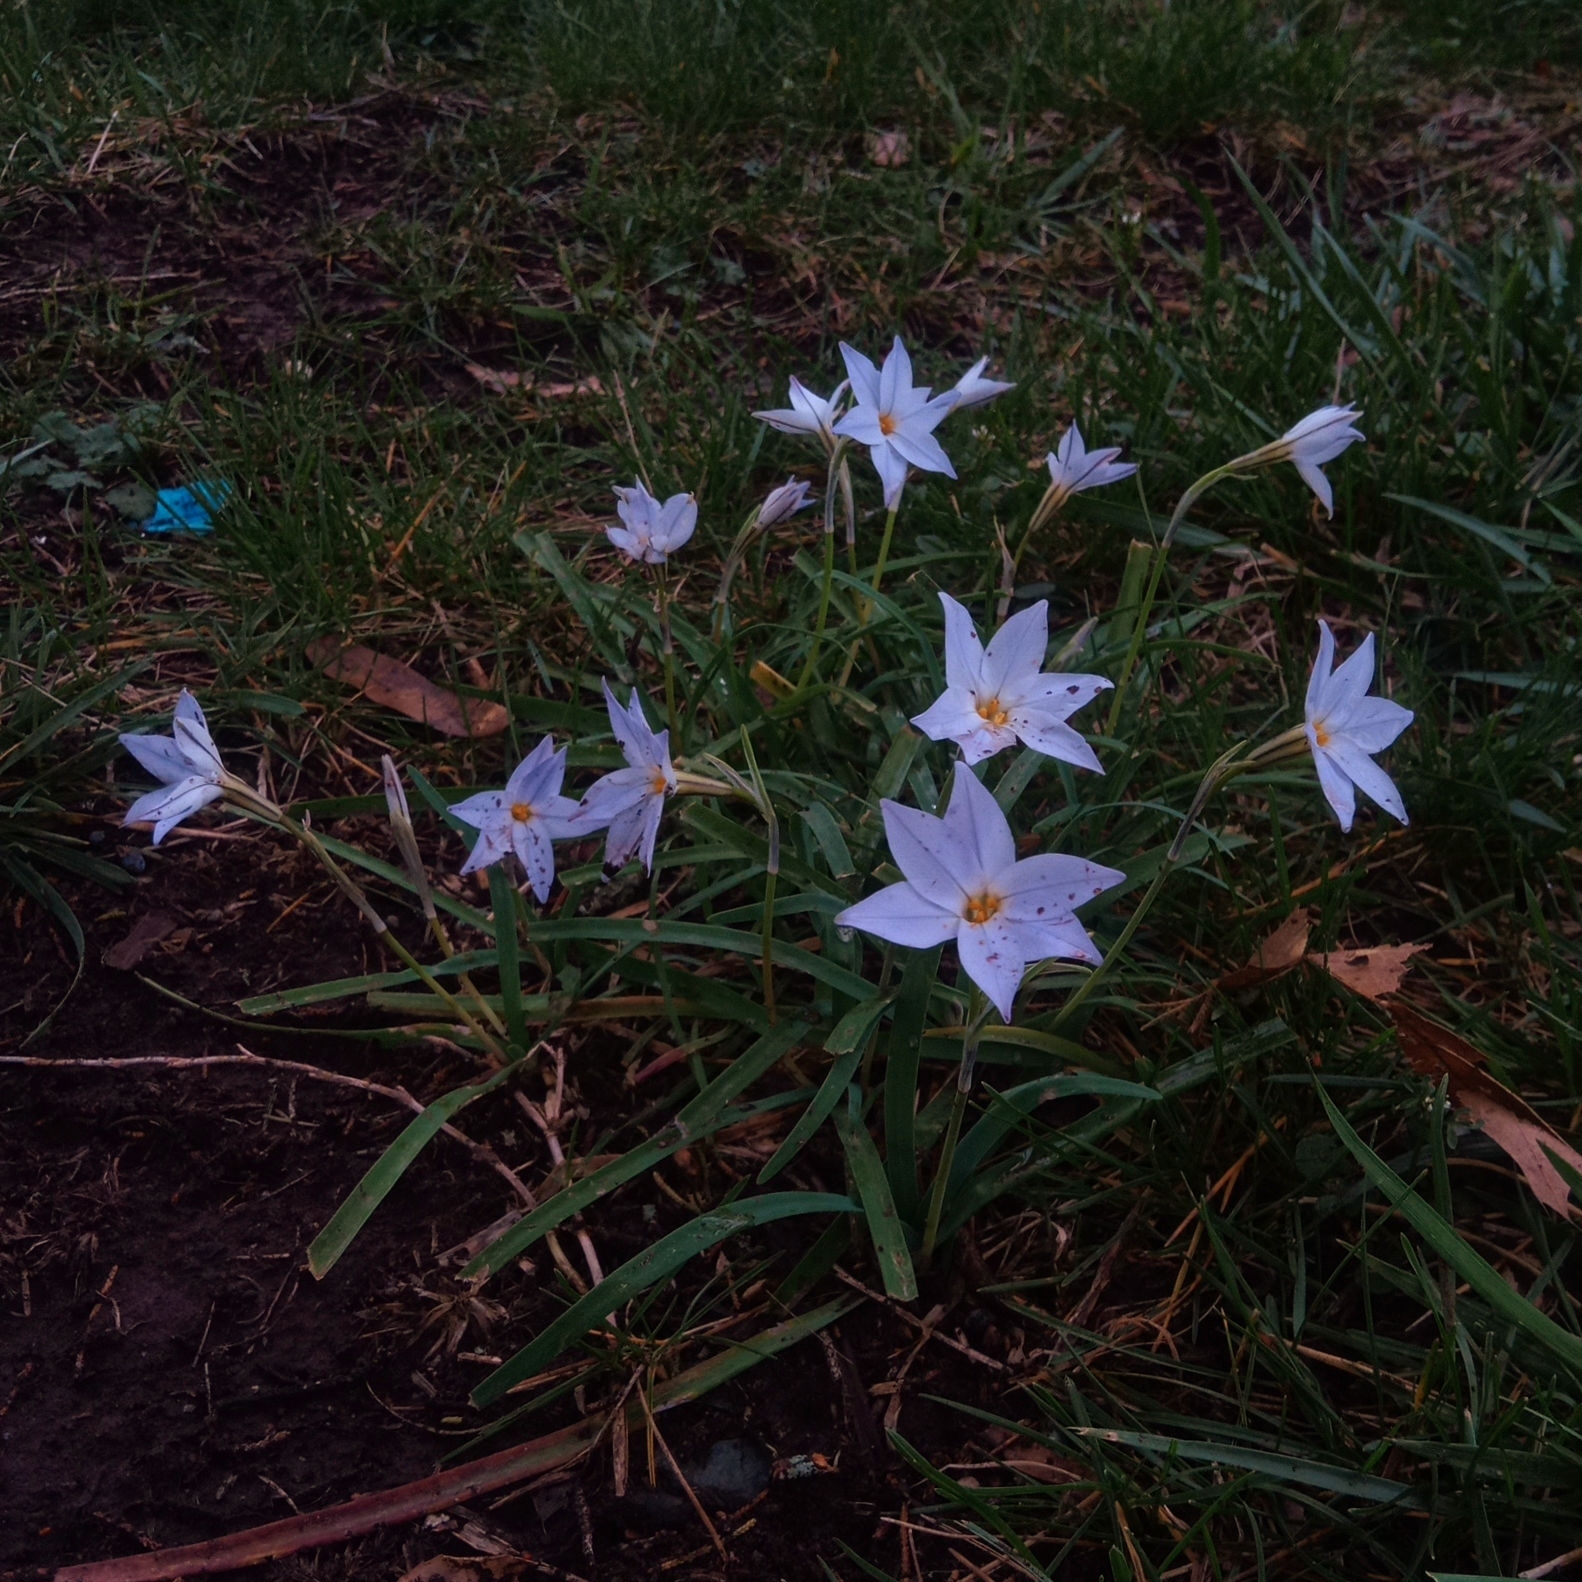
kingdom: Plantae
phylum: Tracheophyta
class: Liliopsida
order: Asparagales
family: Amaryllidaceae
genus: Ipheion
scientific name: Ipheion uniflorum
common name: Spring starflower
